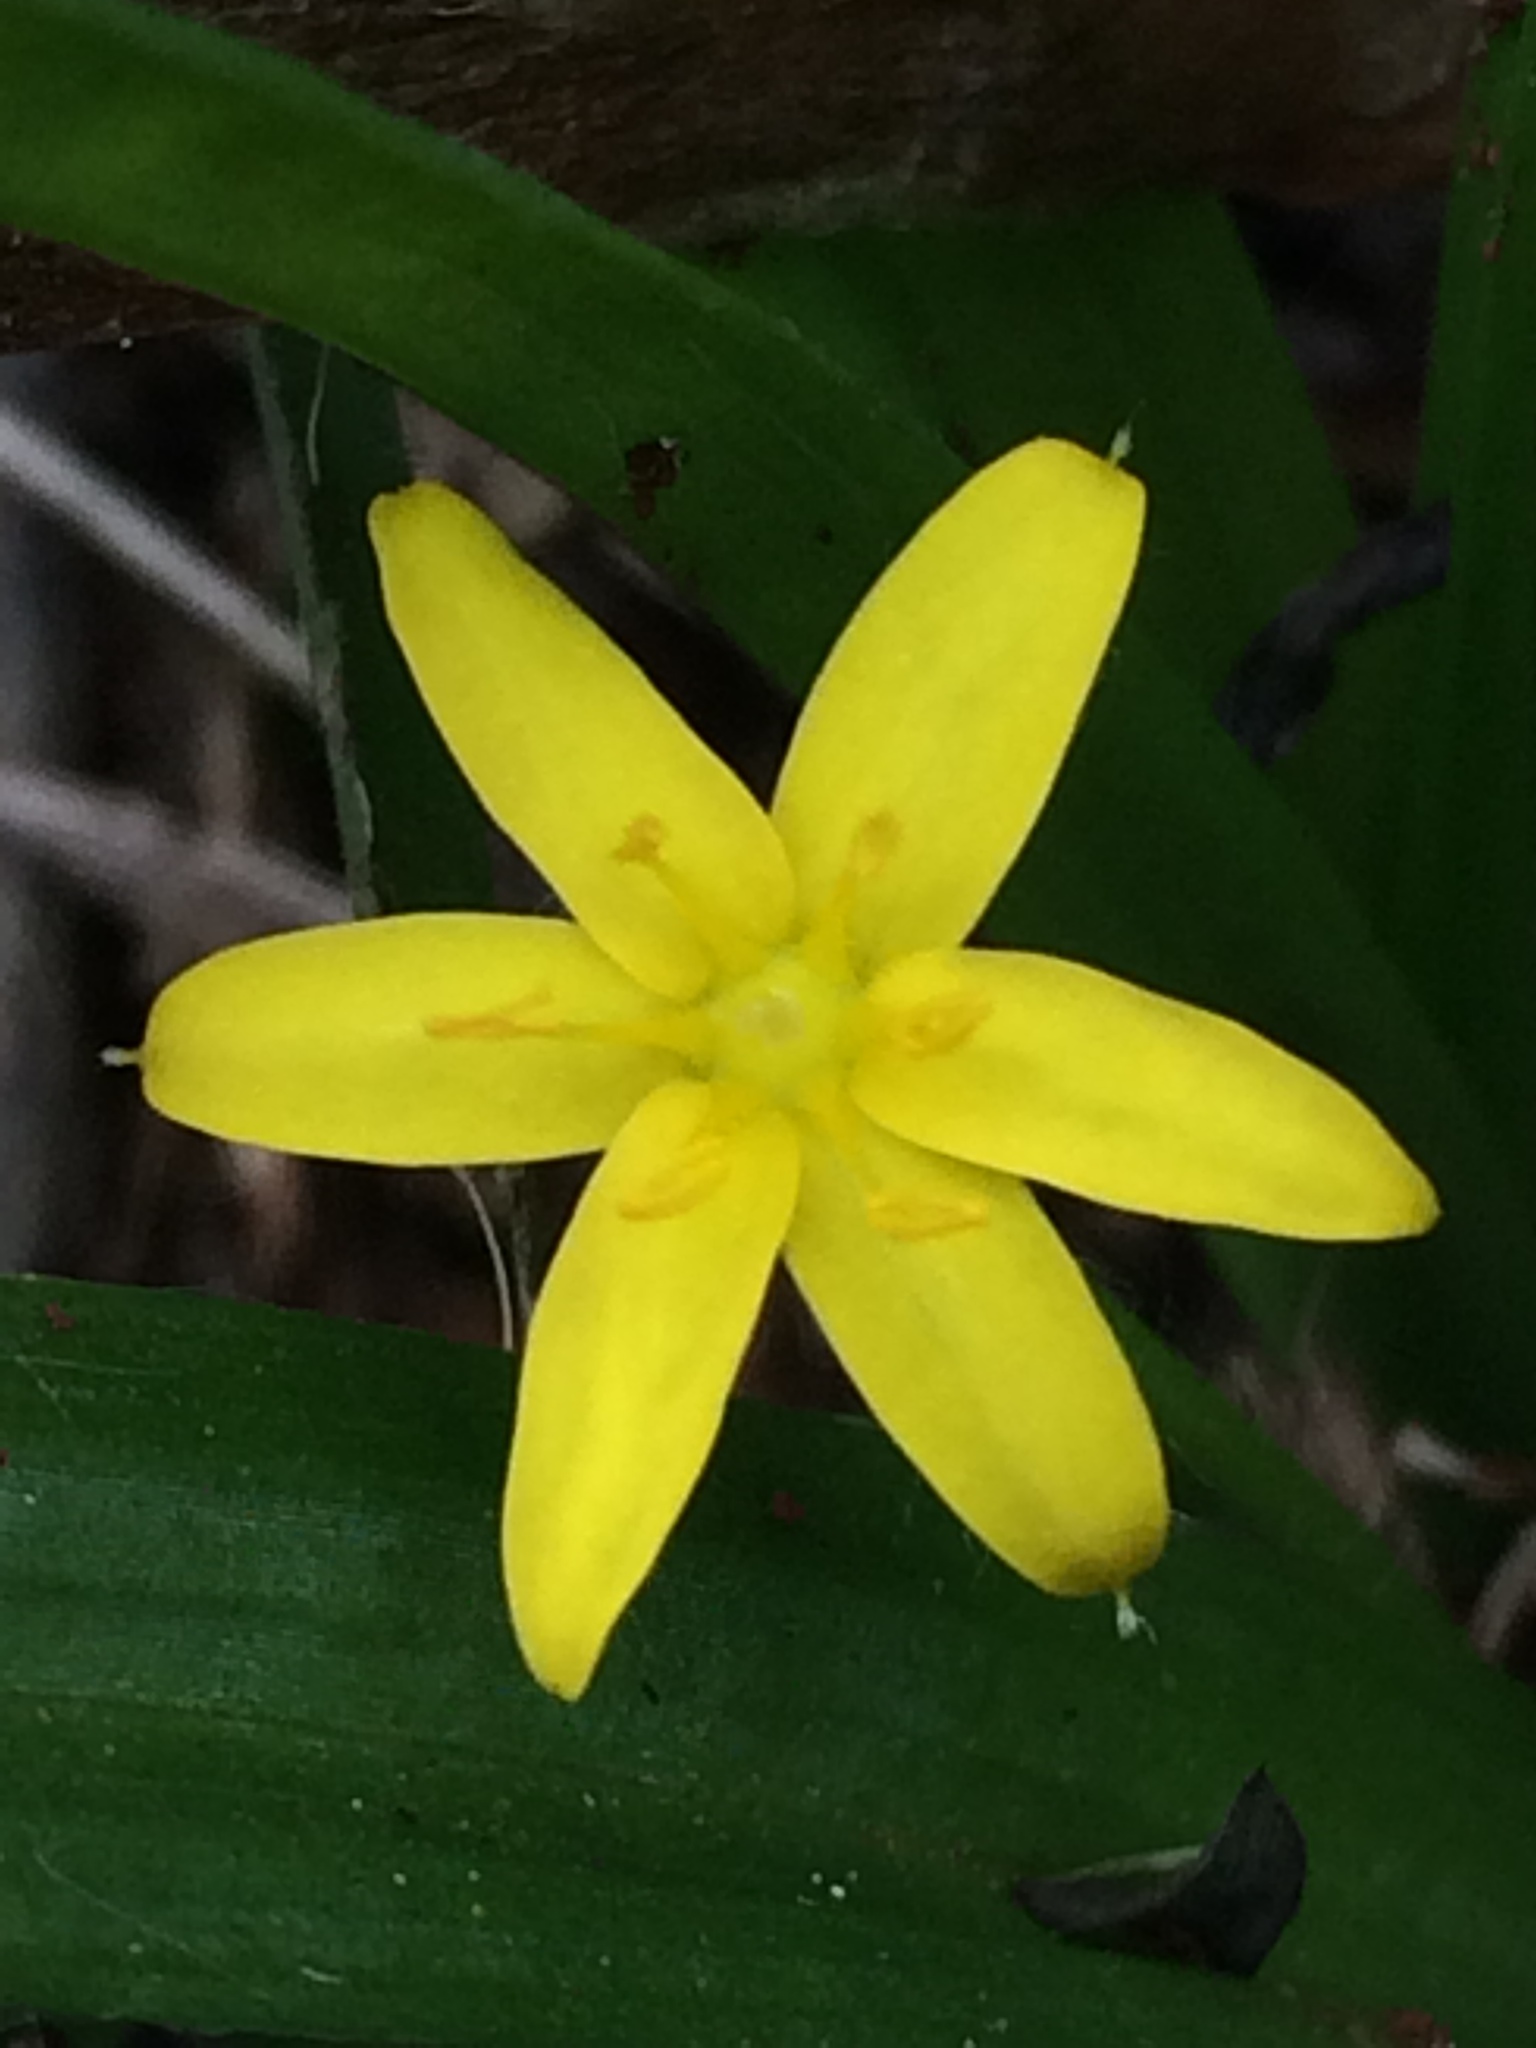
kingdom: Plantae
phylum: Tracheophyta
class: Liliopsida
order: Asparagales
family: Hypoxidaceae
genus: Hypoxis
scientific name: Hypoxis decumbens
